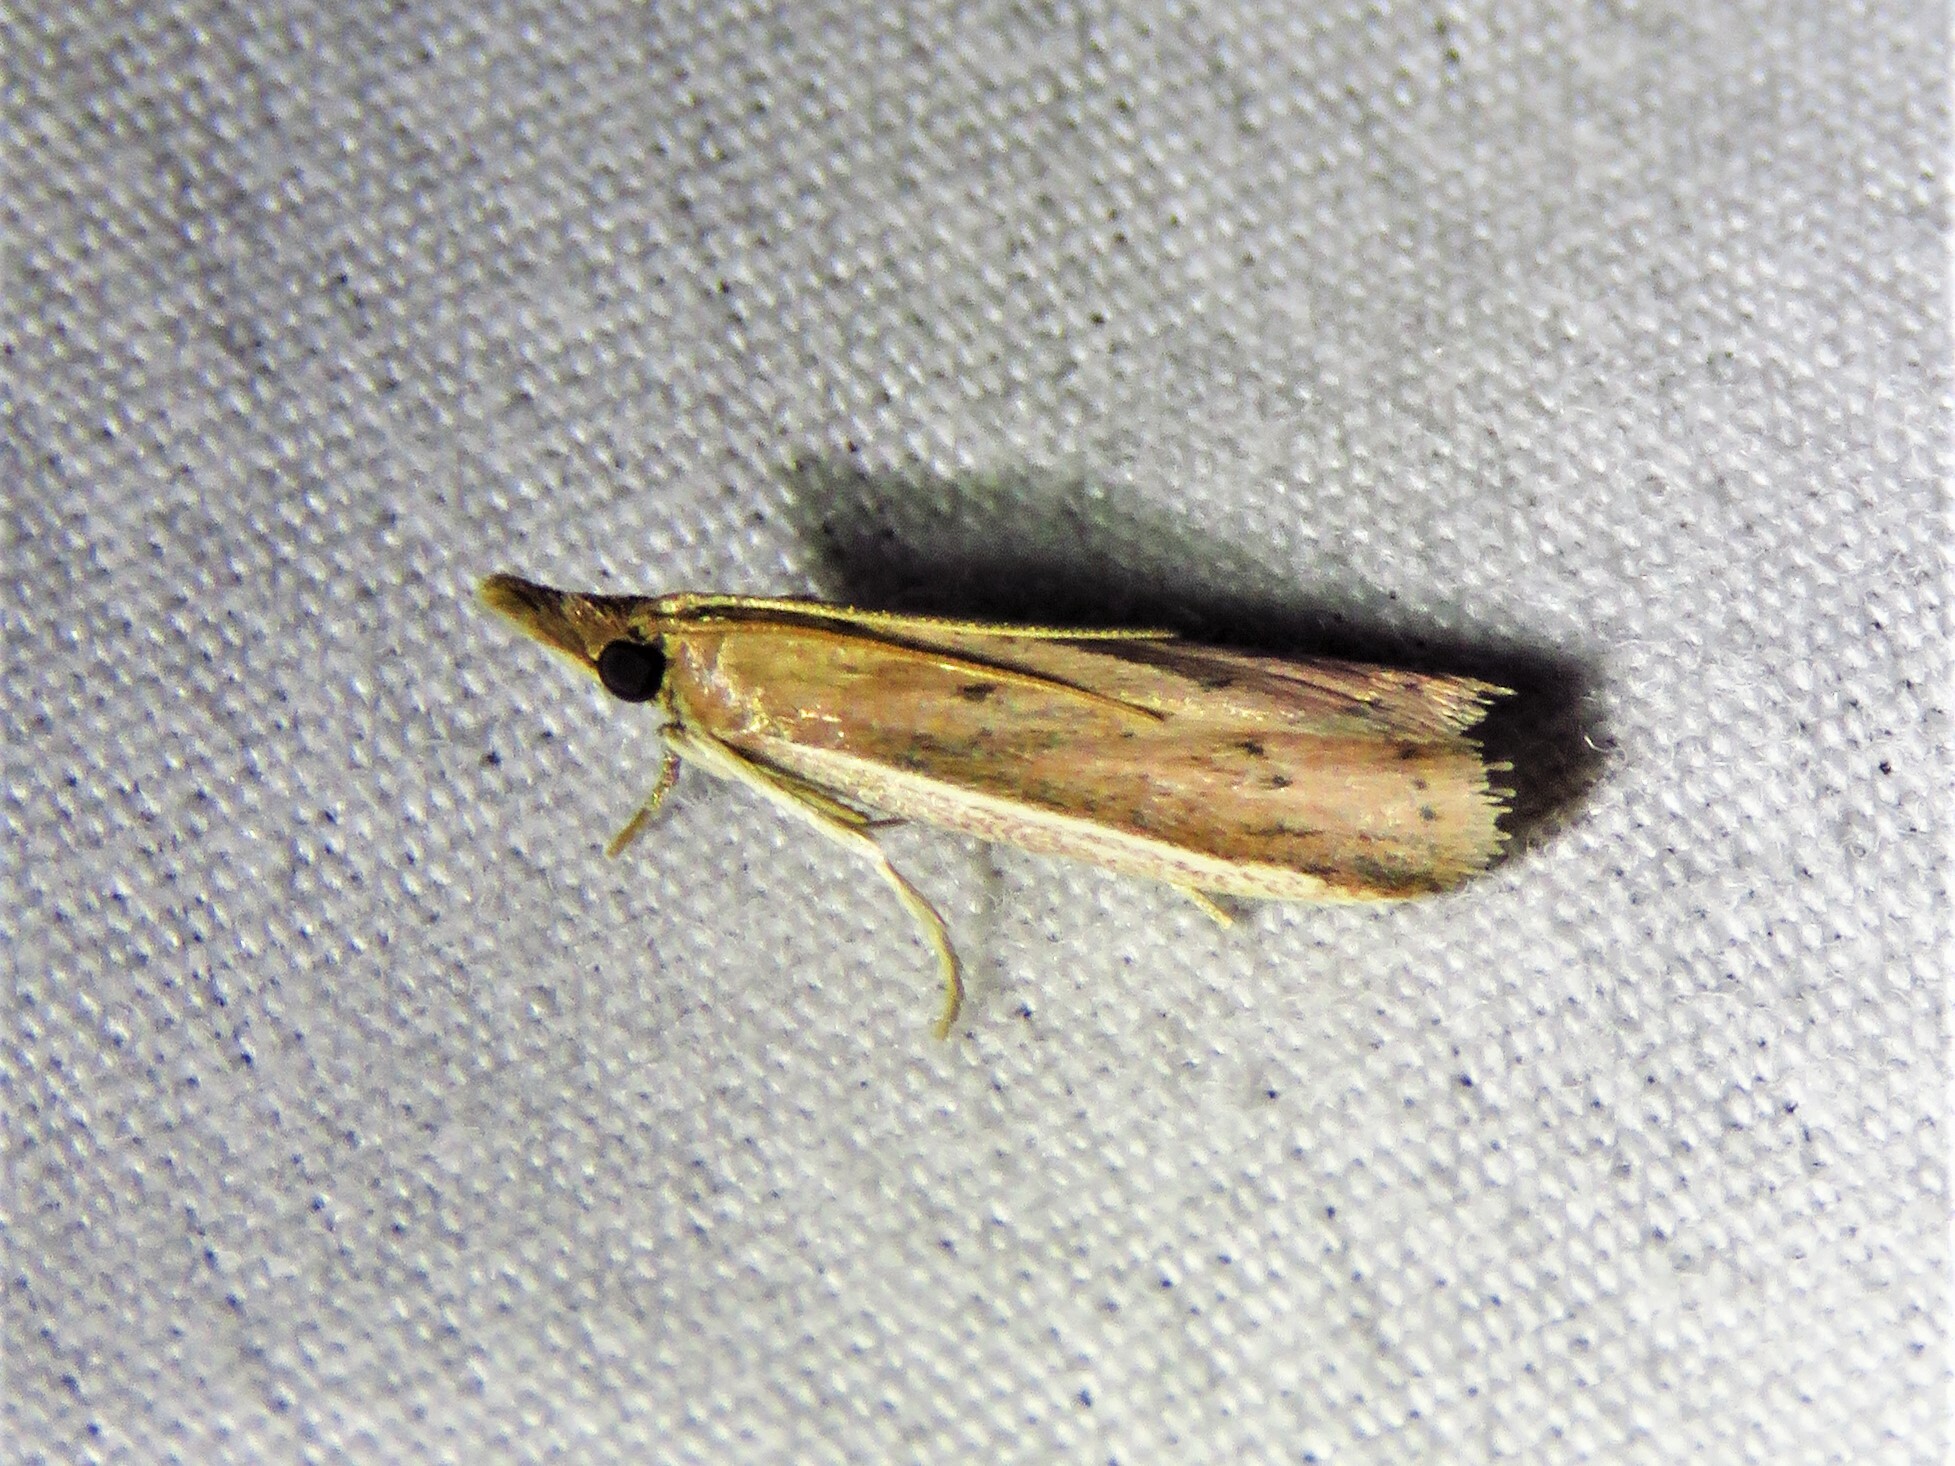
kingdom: Animalia
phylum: Arthropoda
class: Insecta
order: Lepidoptera
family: Pyralidae
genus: Peoria
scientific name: Peoria roseotinctella
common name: Rosy peoria moth
